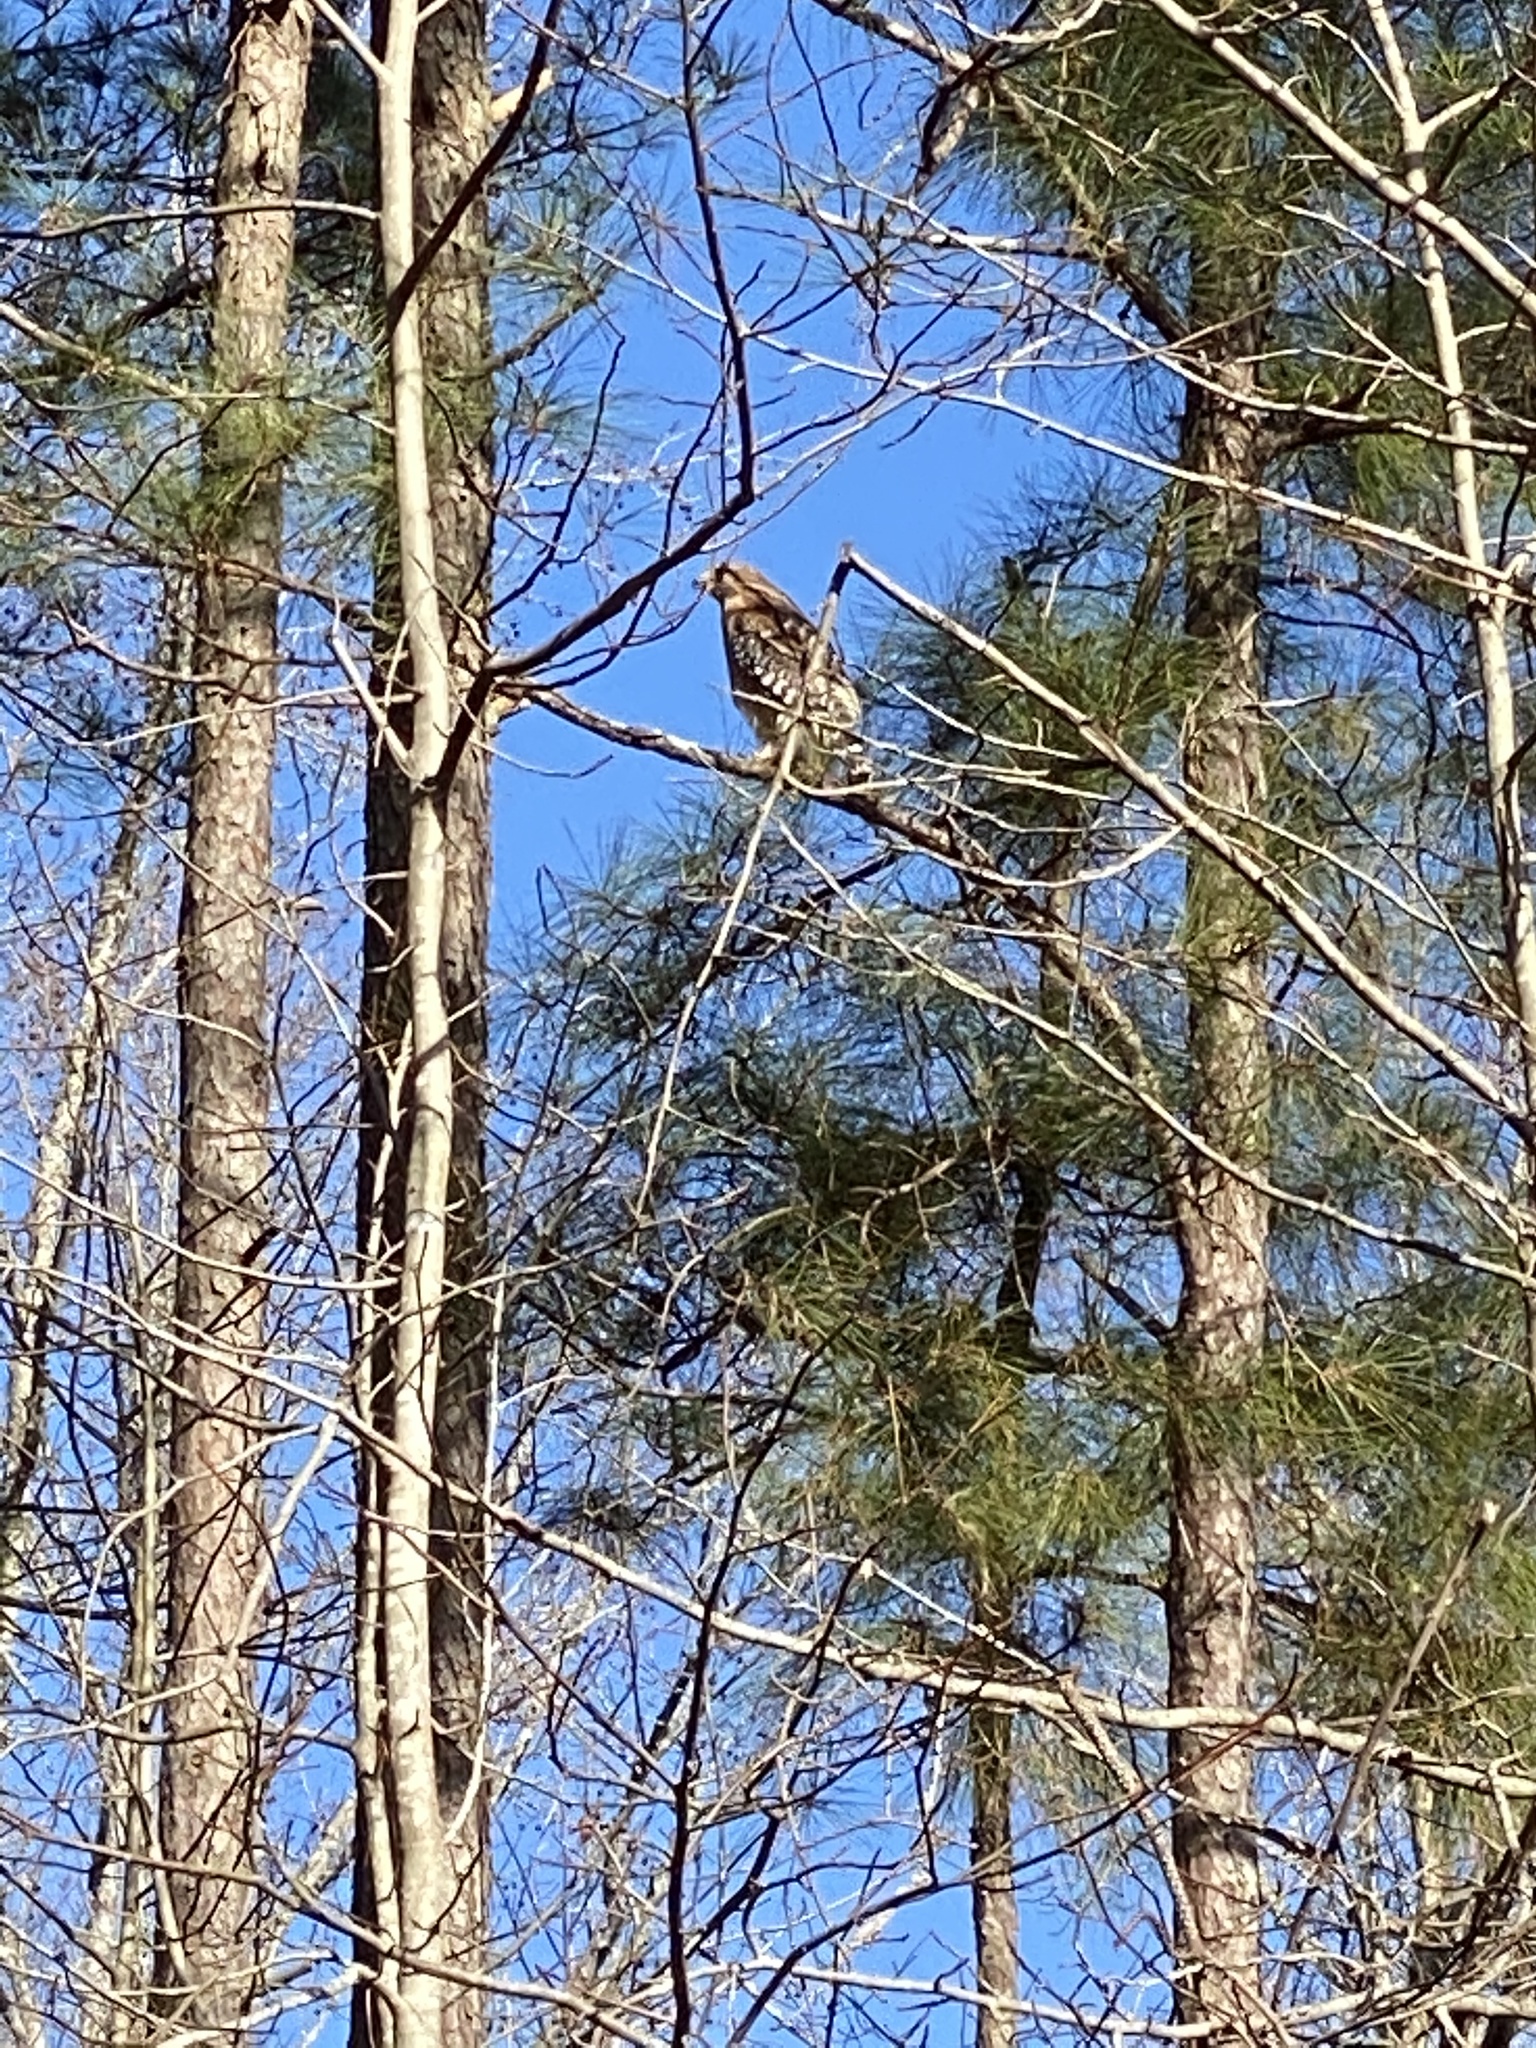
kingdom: Animalia
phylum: Chordata
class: Aves
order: Accipitriformes
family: Accipitridae
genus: Buteo
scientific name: Buteo lineatus
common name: Red-shouldered hawk
